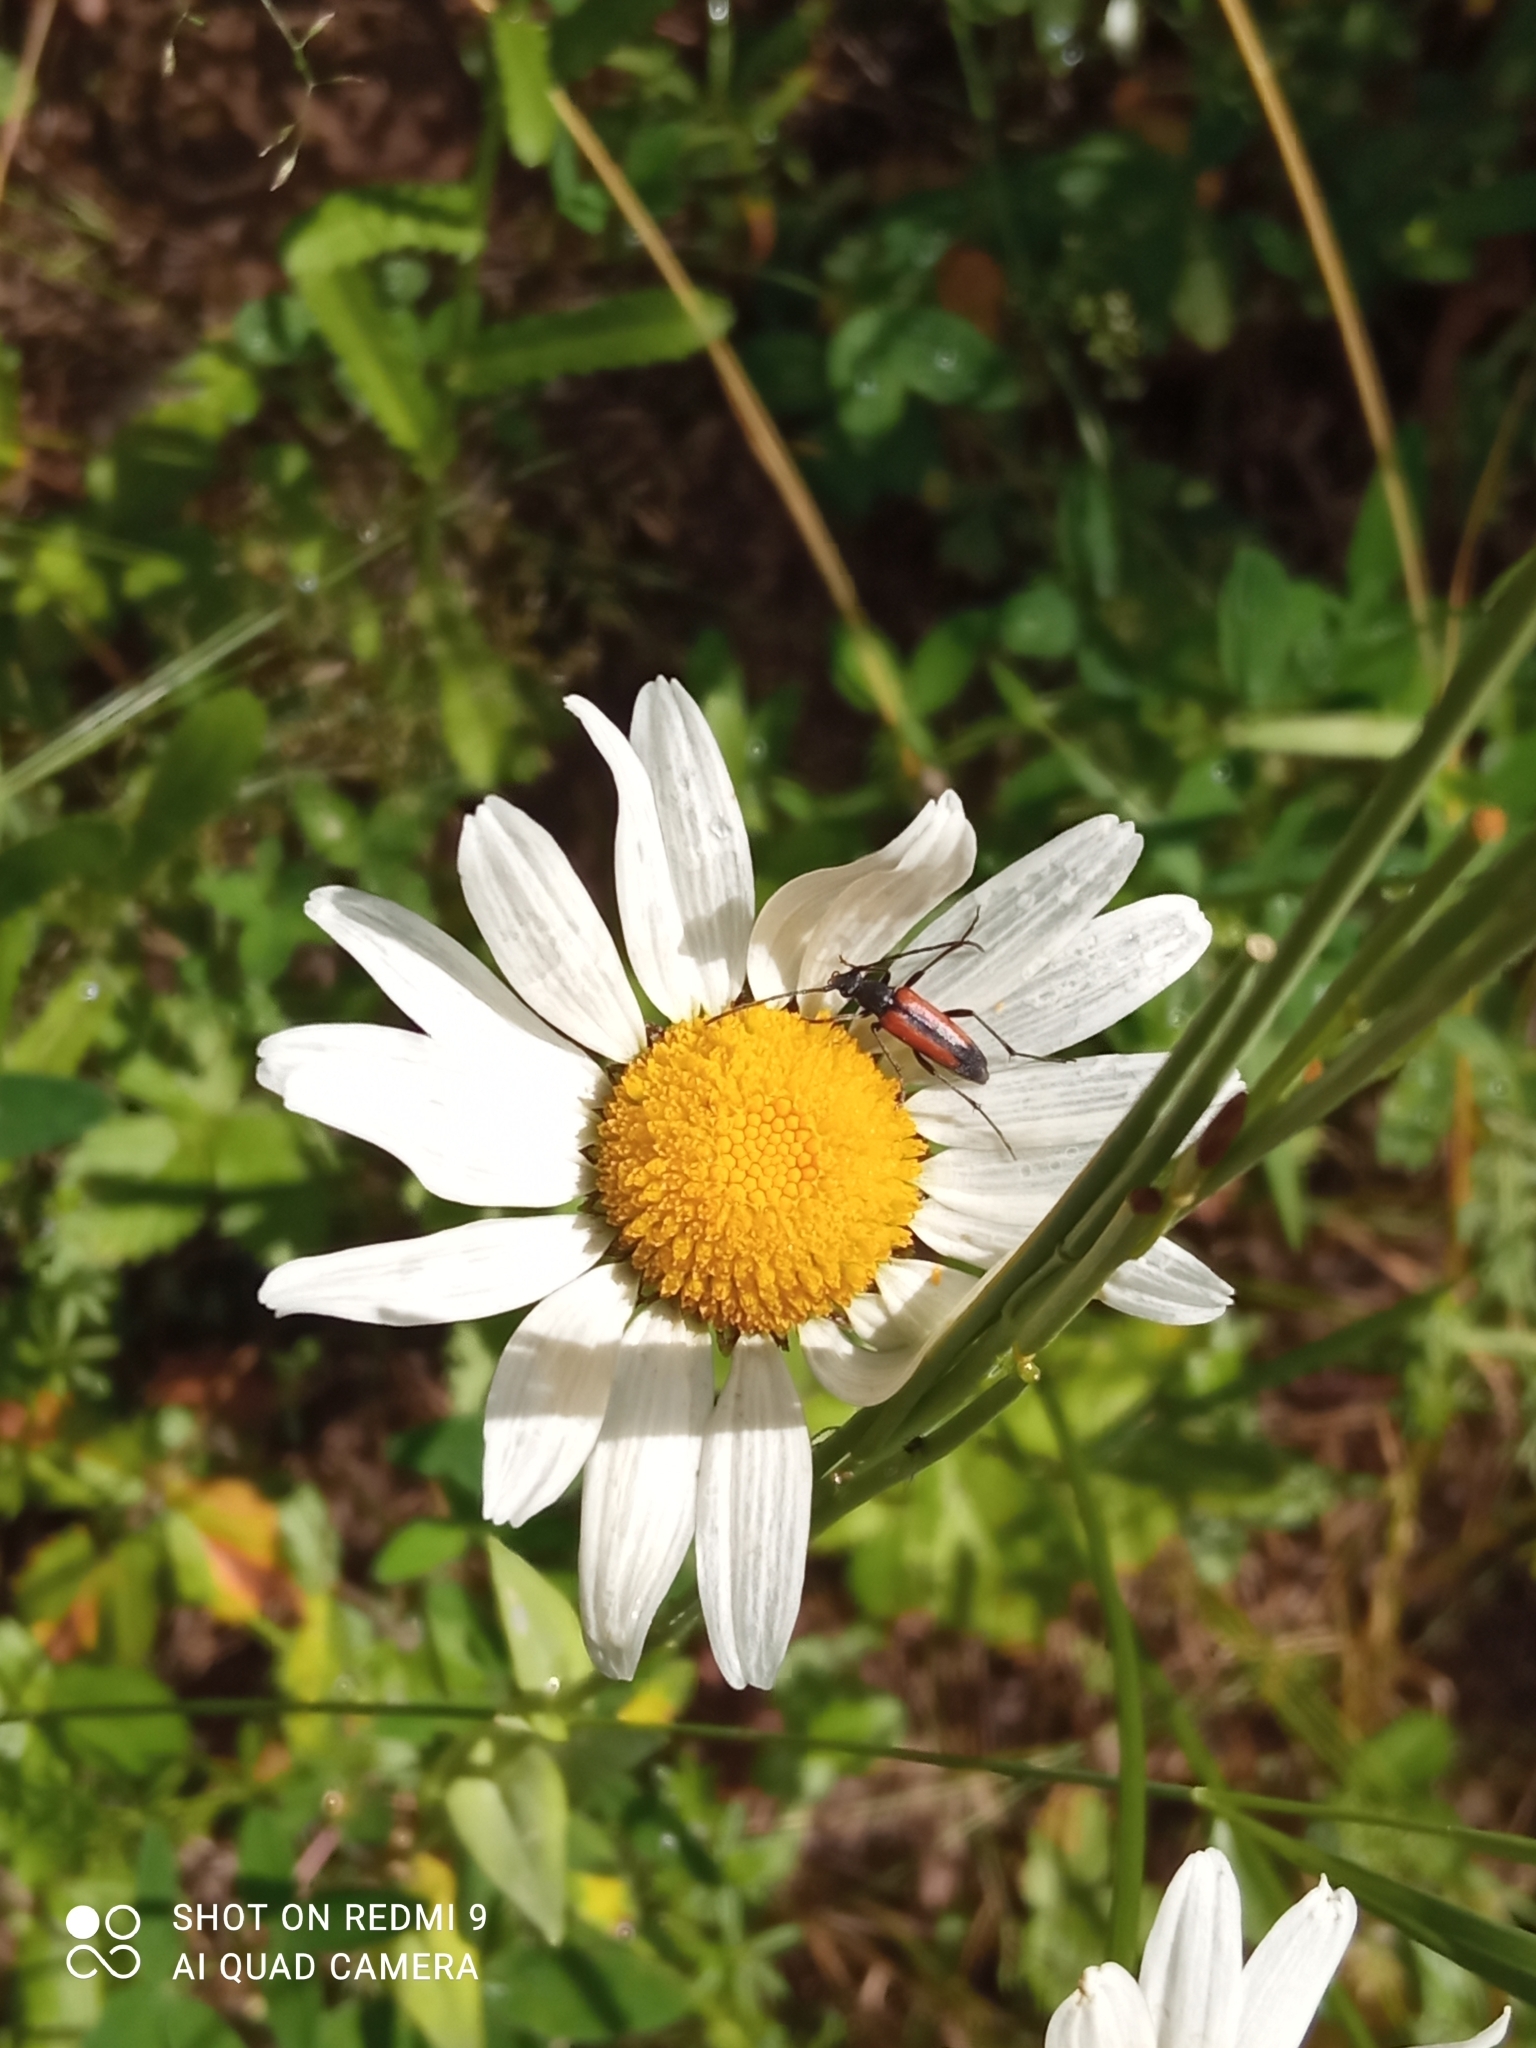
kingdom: Animalia
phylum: Arthropoda
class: Insecta
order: Coleoptera
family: Cerambycidae
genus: Stenurella
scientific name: Stenurella melanura
